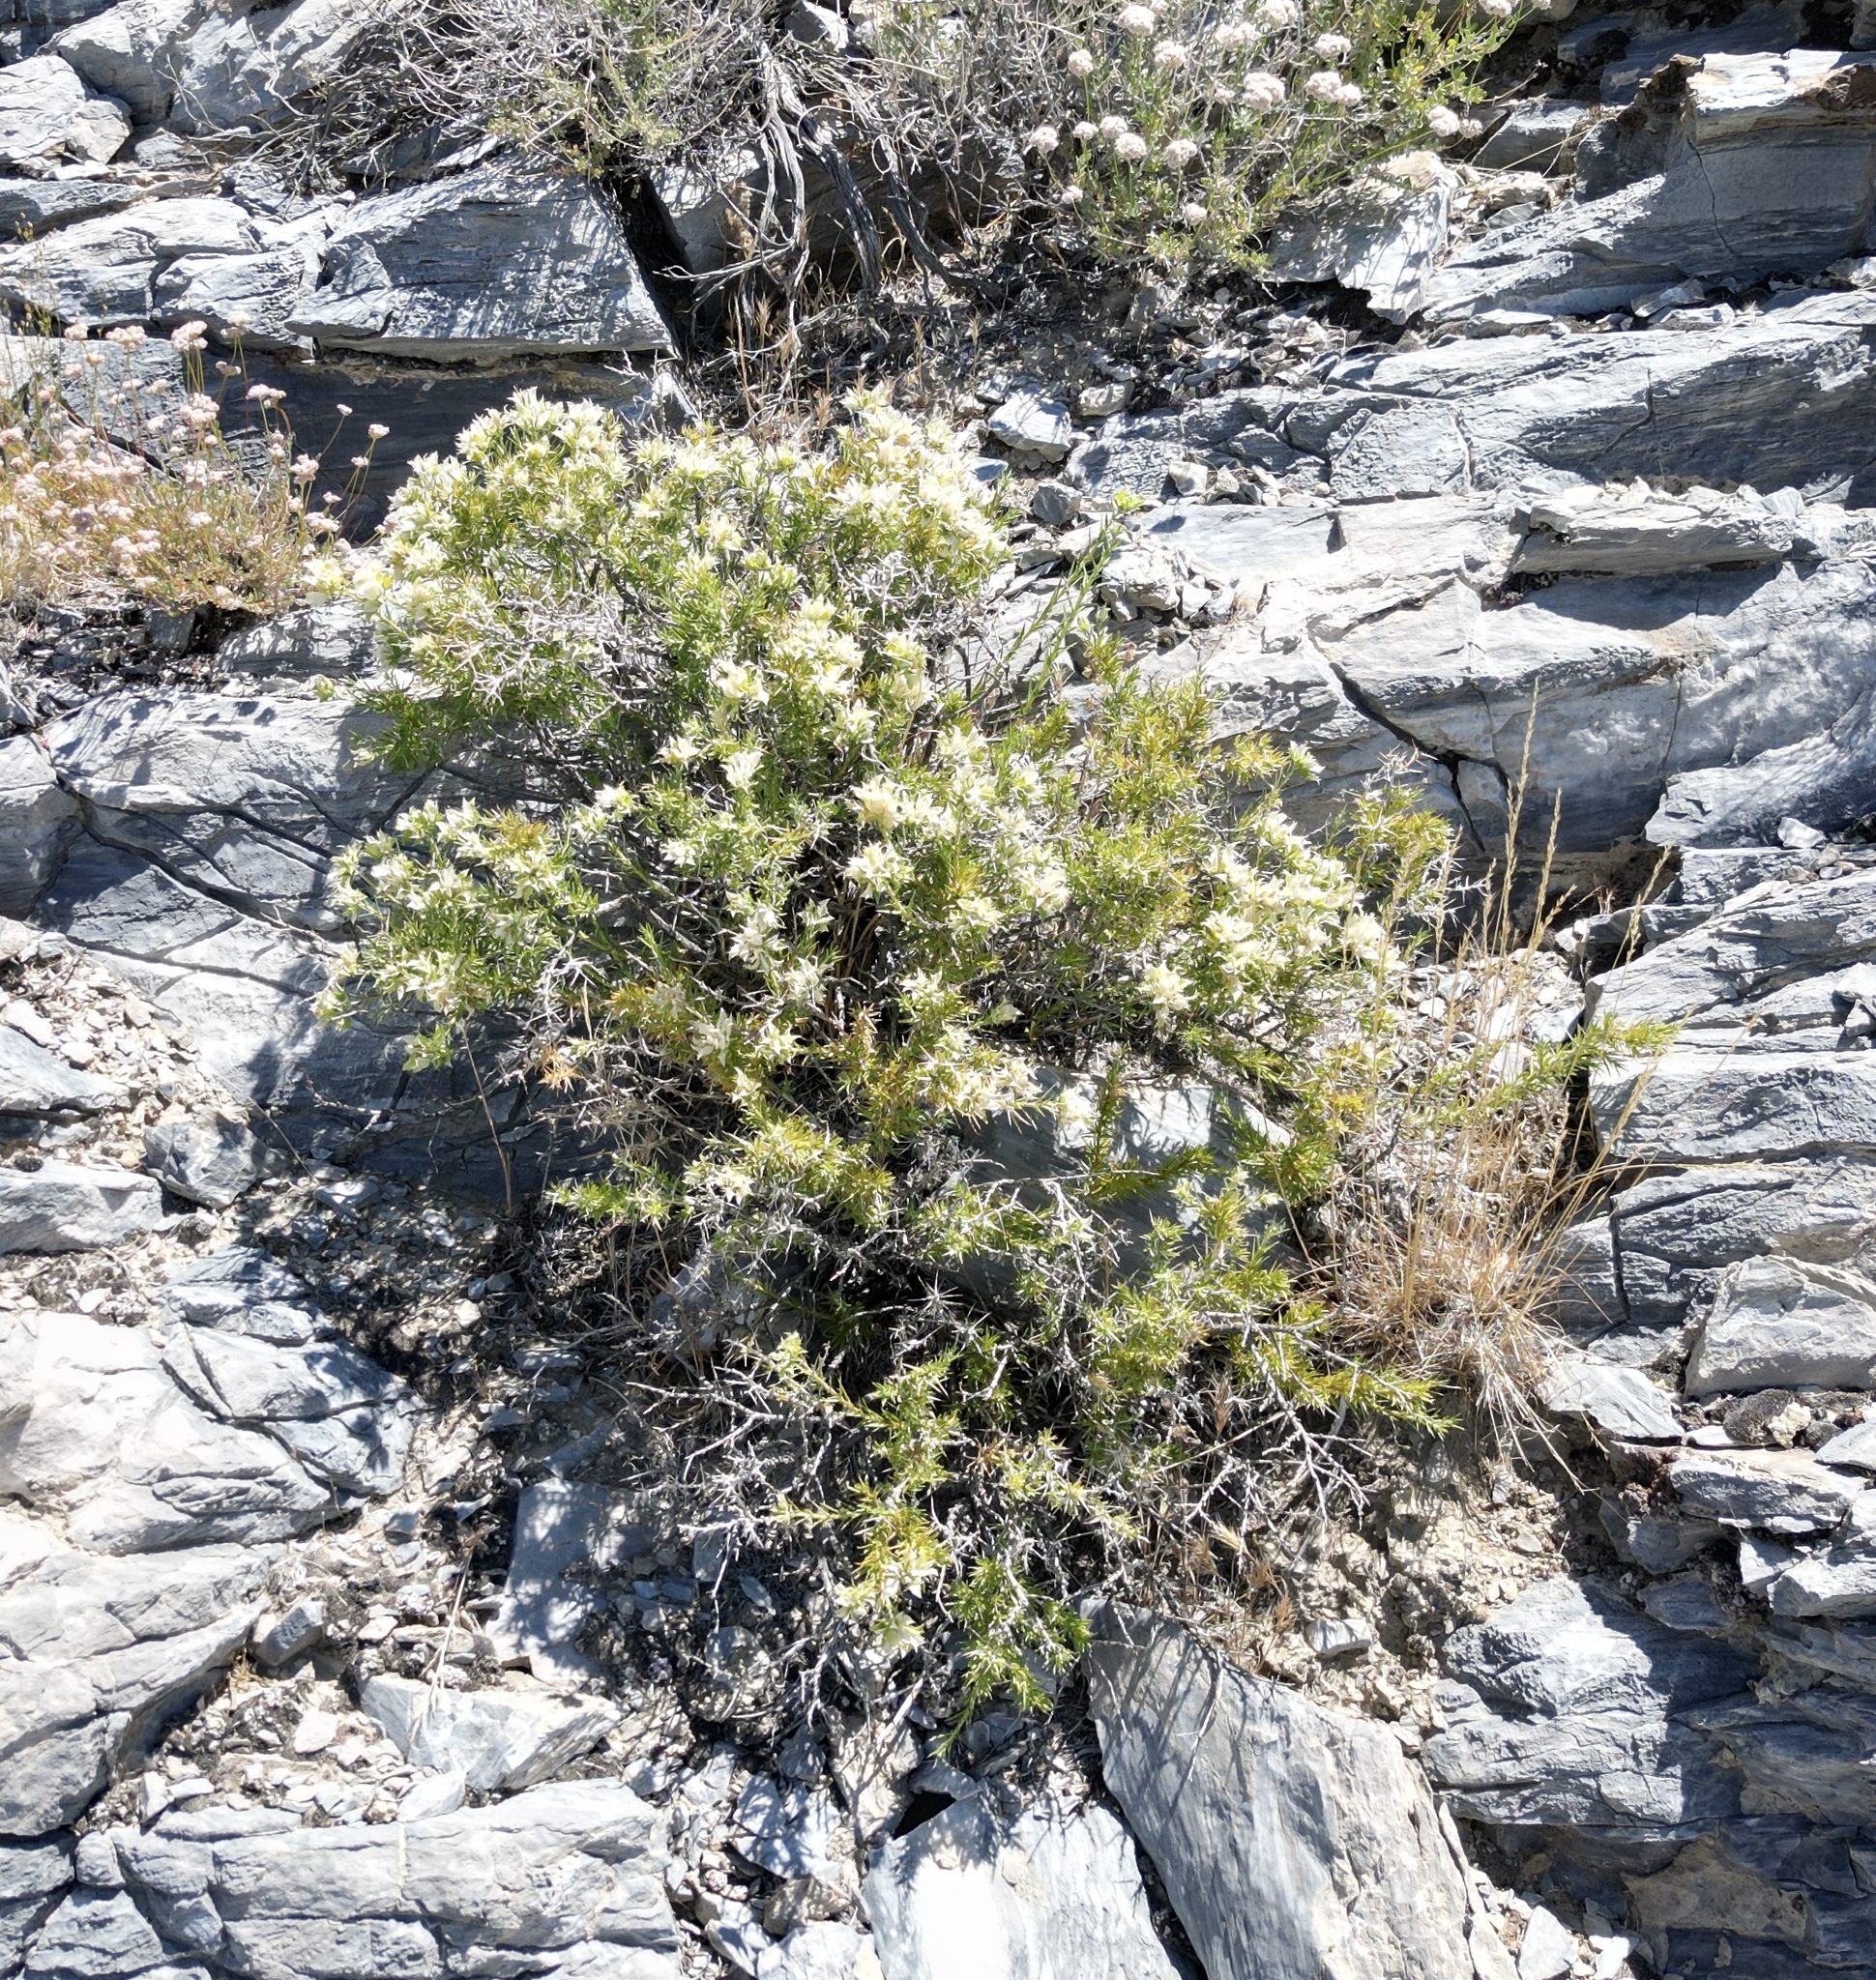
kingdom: Plantae
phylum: Tracheophyta
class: Magnoliopsida
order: Asterales
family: Asteraceae
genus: Hecastocleis
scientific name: Hecastocleis shockleyi
